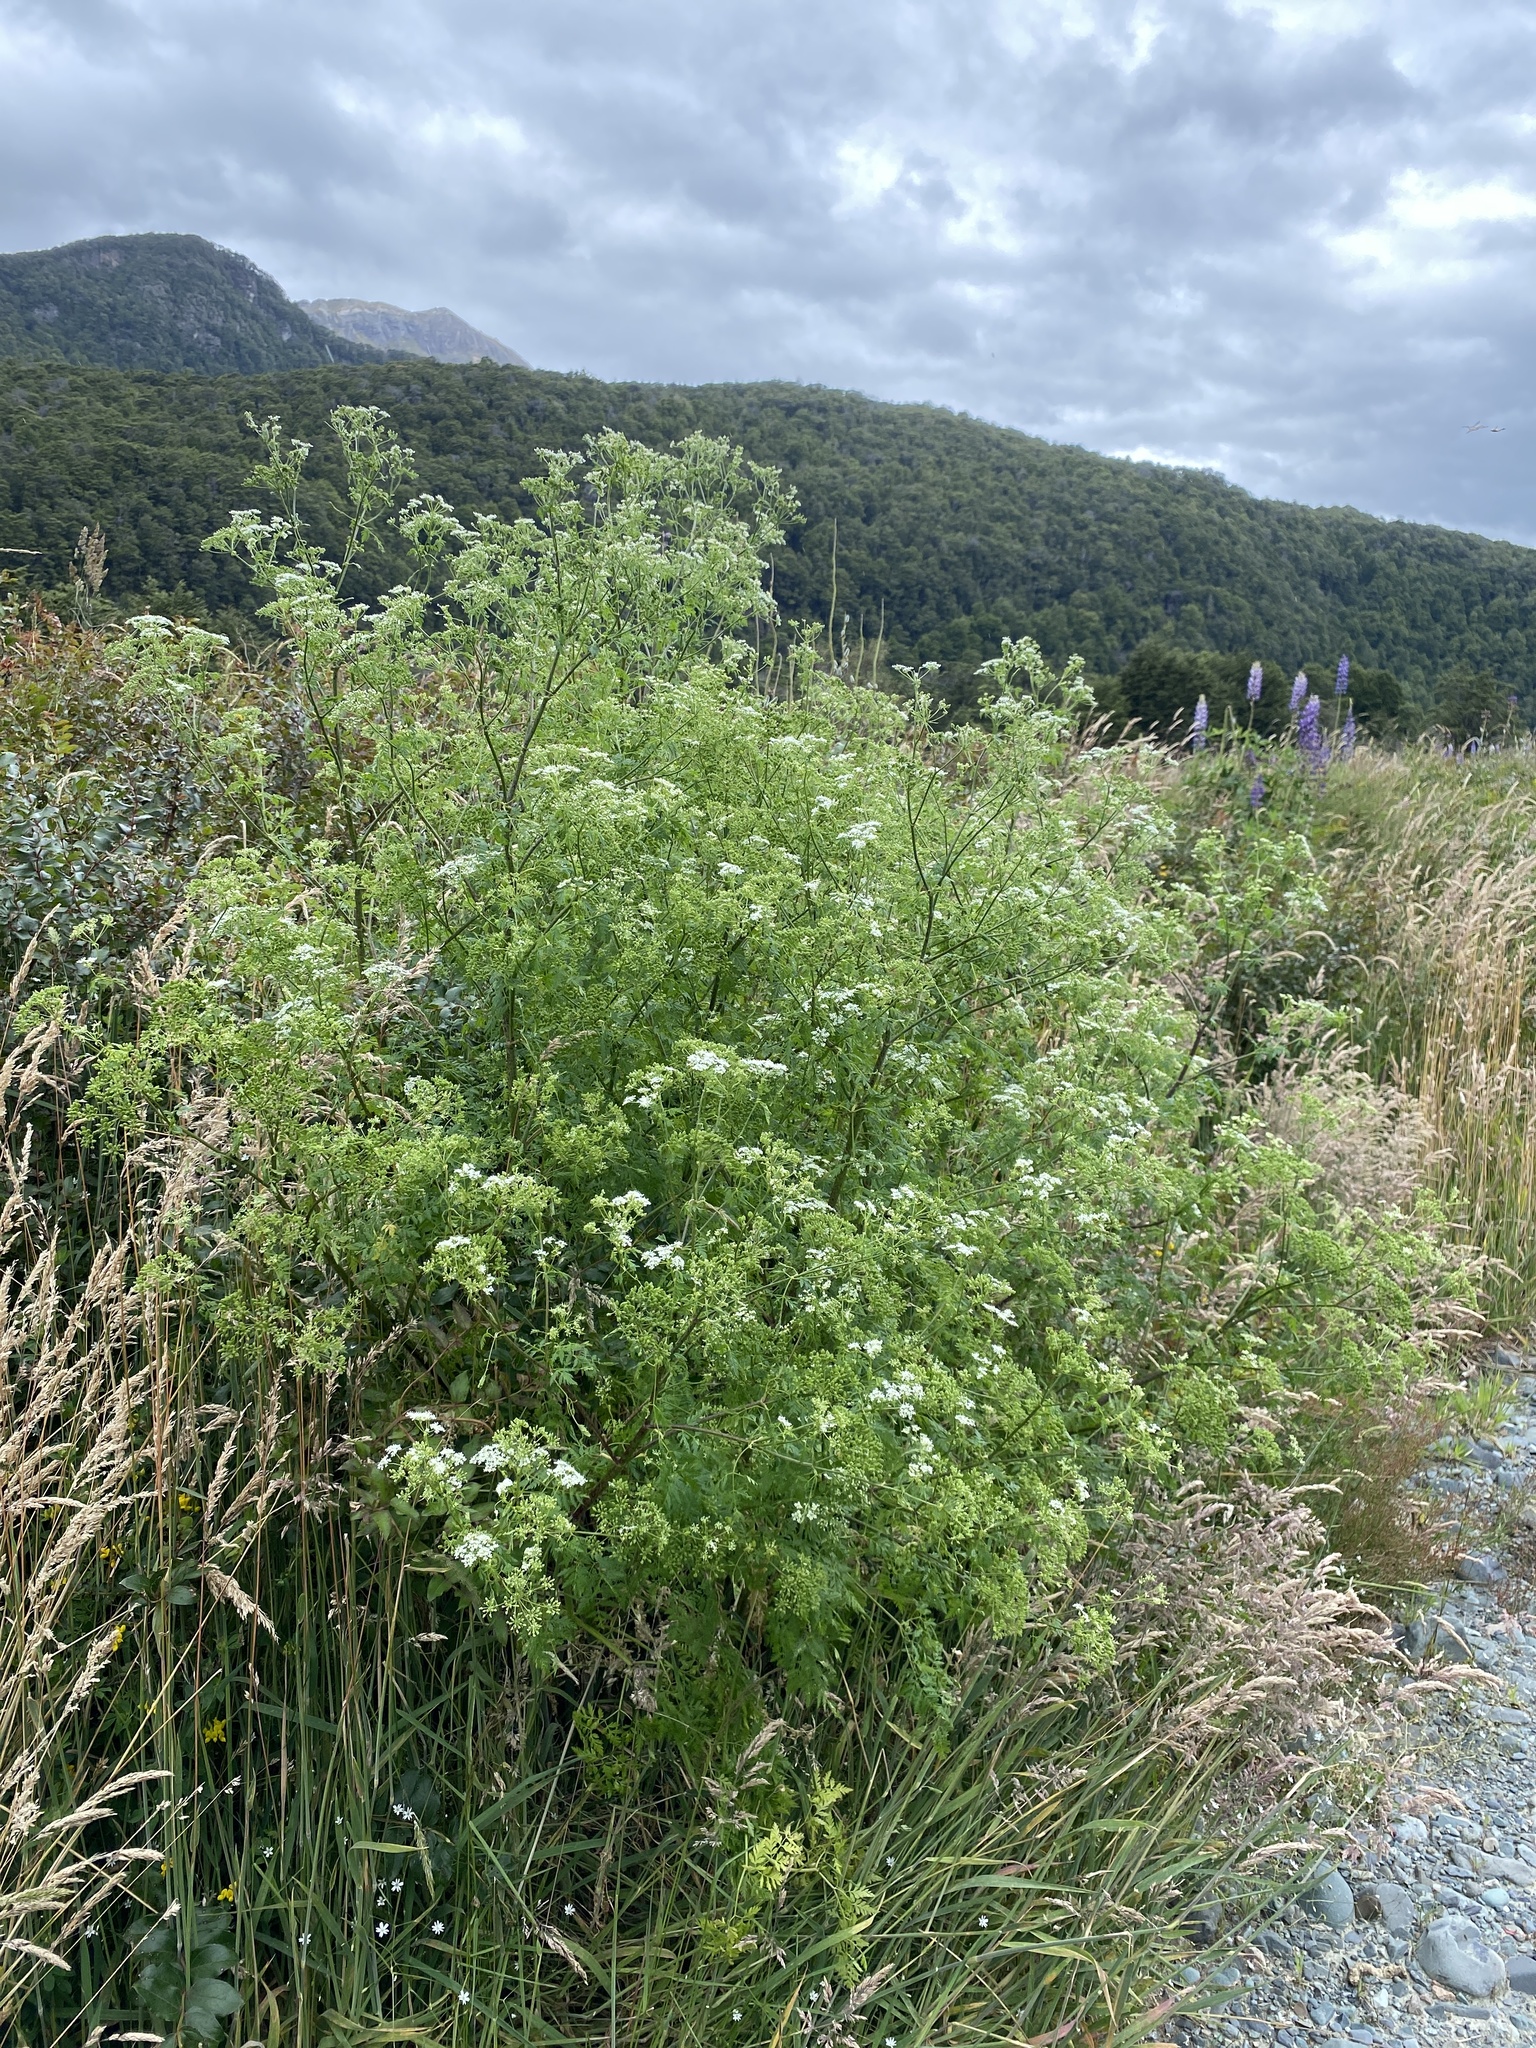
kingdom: Plantae
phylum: Tracheophyta
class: Magnoliopsida
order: Apiales
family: Apiaceae
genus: Conium
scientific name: Conium maculatum
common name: Hemlock
